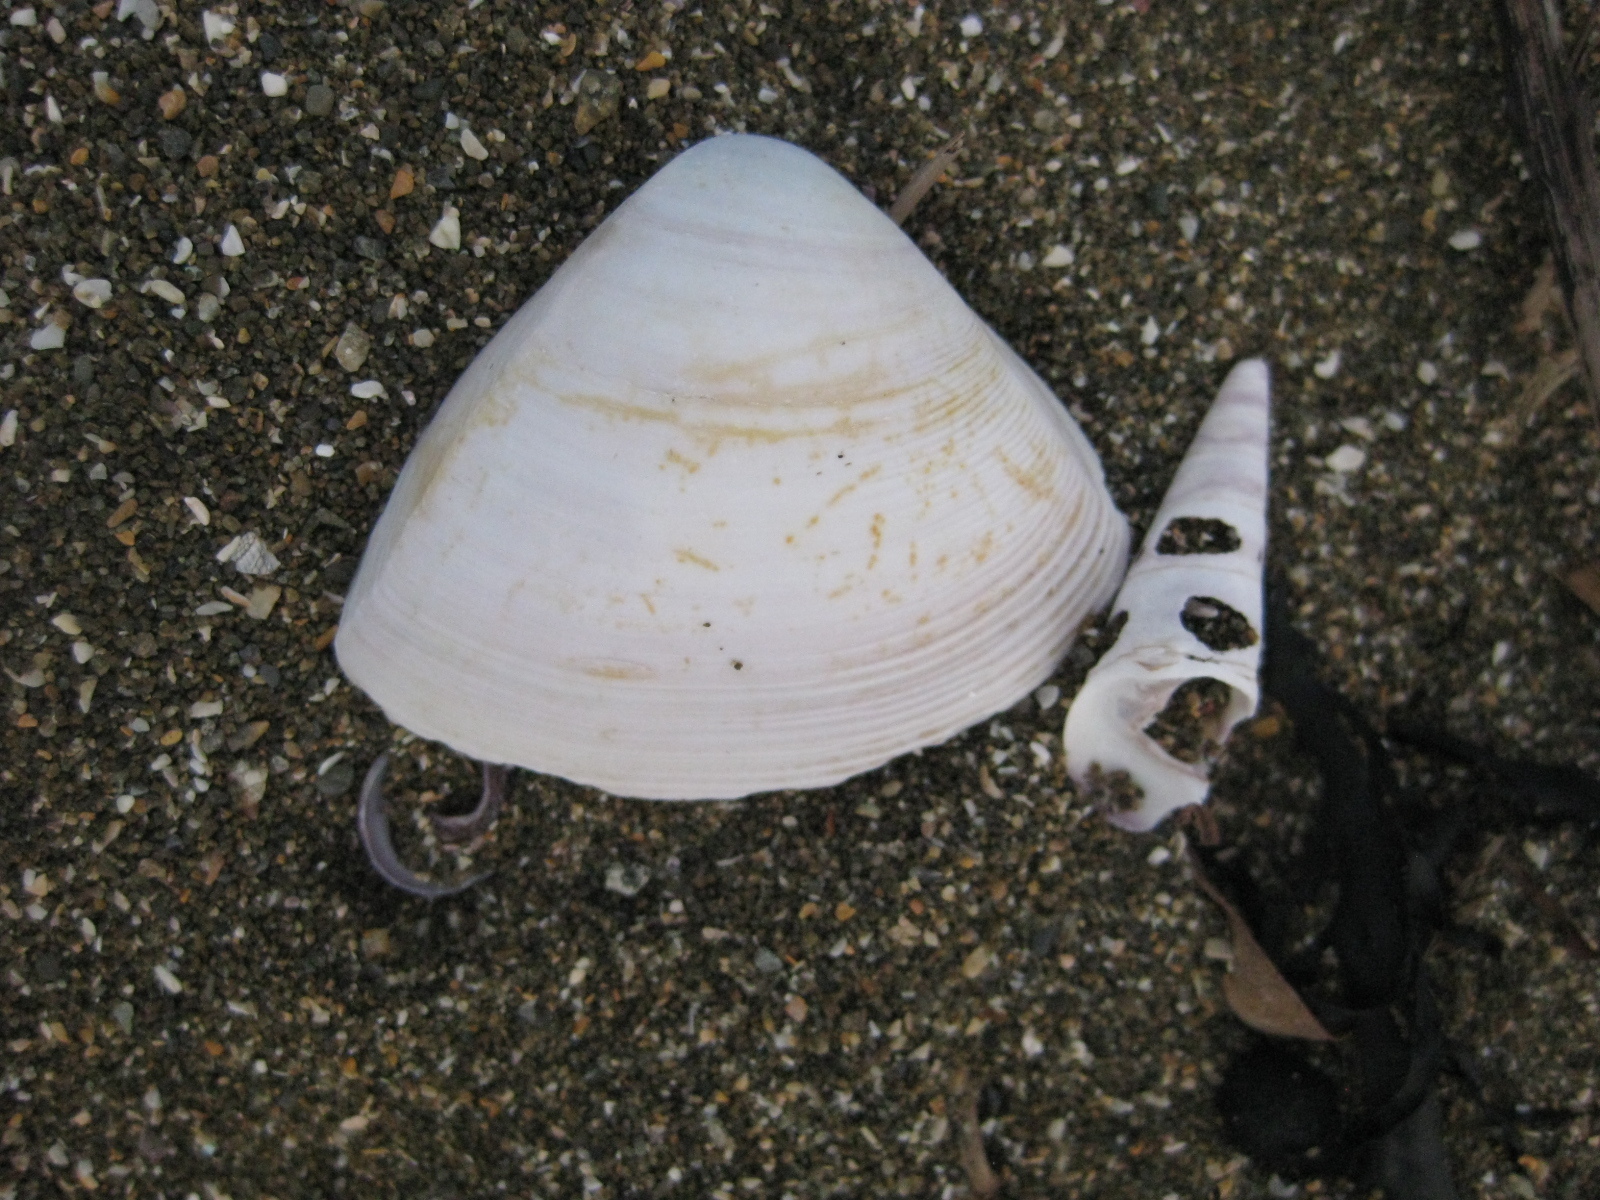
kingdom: Animalia
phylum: Mollusca
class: Bivalvia
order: Venerida
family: Mactridae
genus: Crassula
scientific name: Crassula aequilatera
